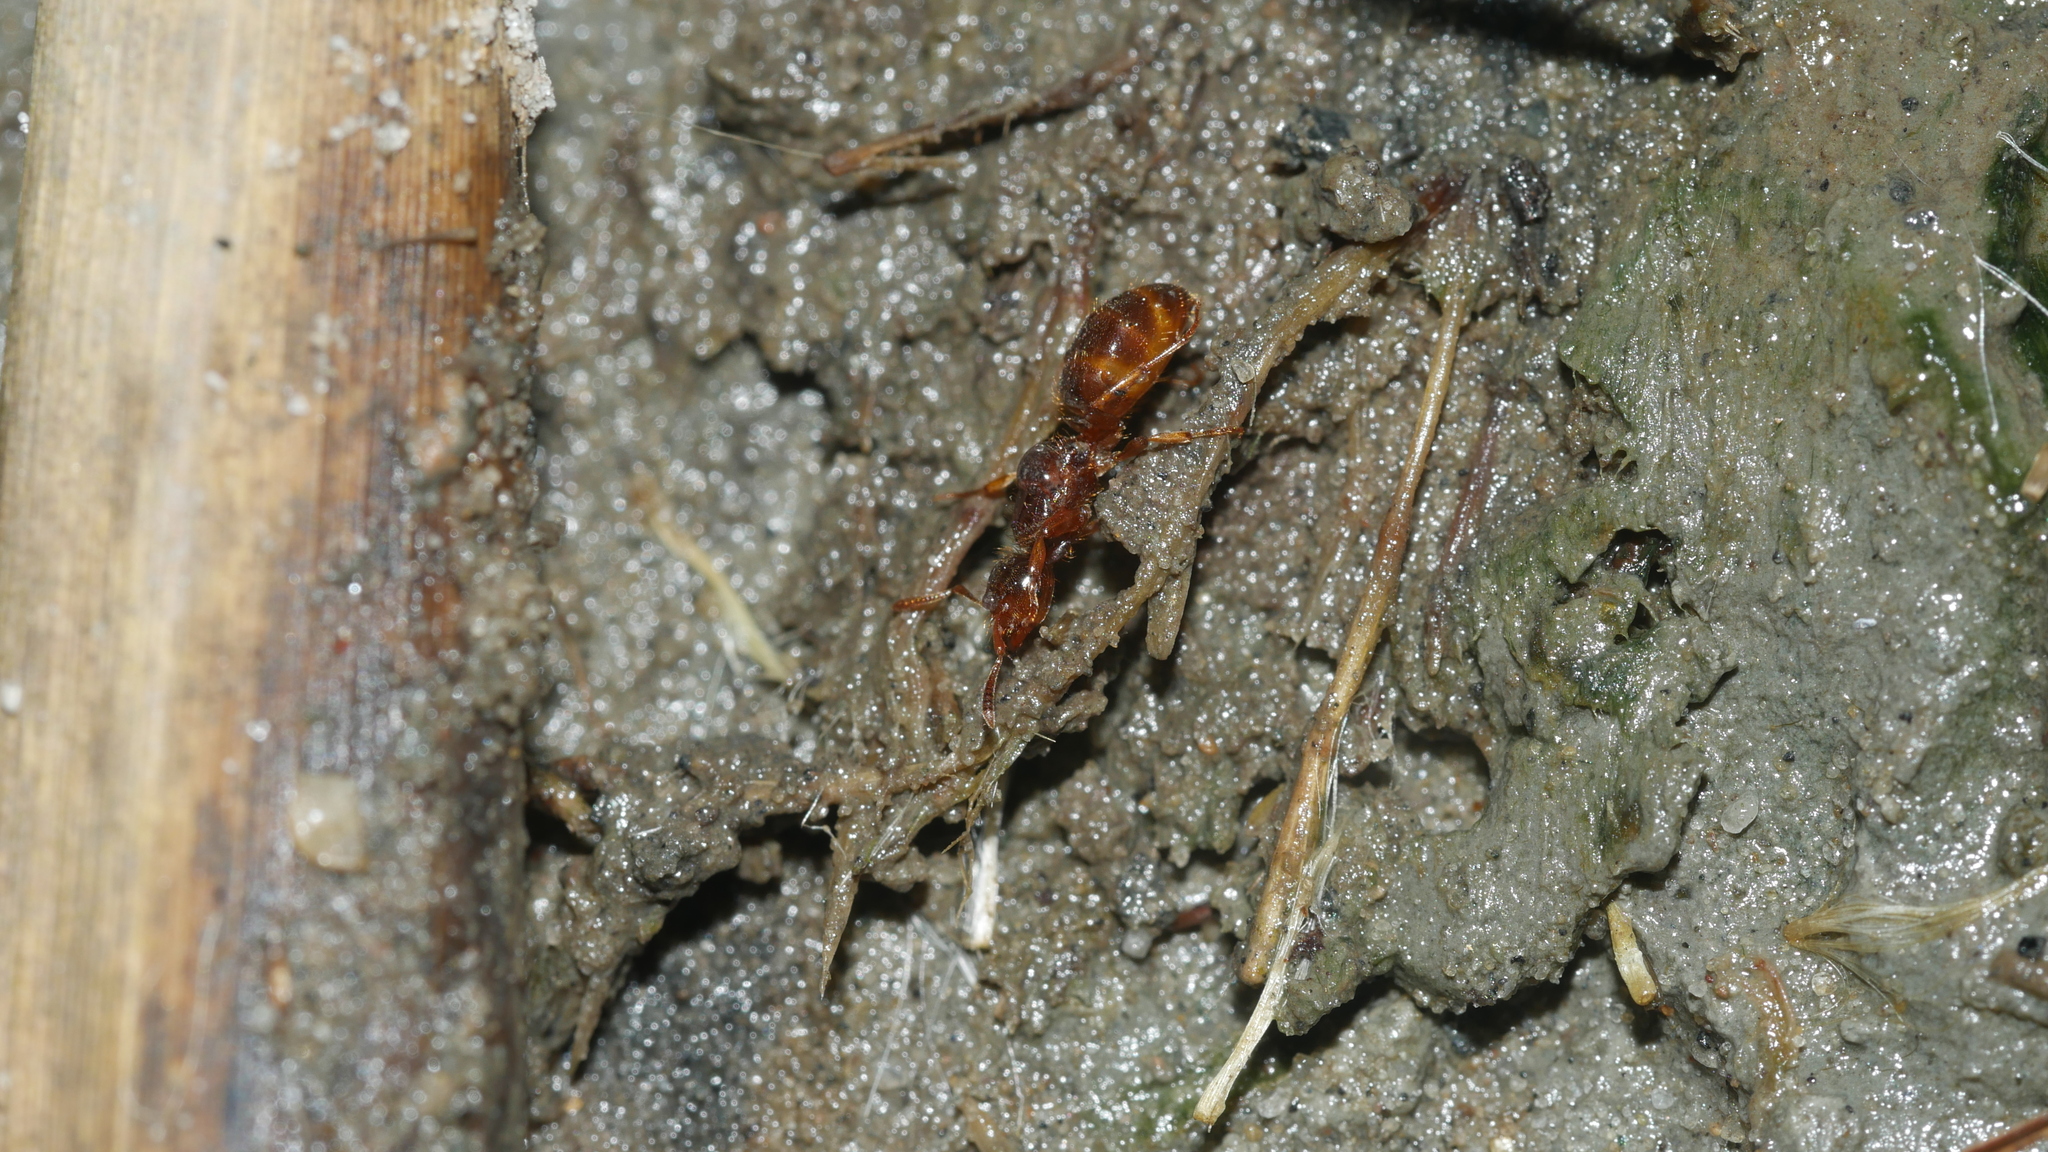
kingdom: Animalia
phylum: Arthropoda
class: Insecta
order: Hymenoptera
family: Formicidae
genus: Lasius
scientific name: Lasius claviger
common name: Common citronella ant
